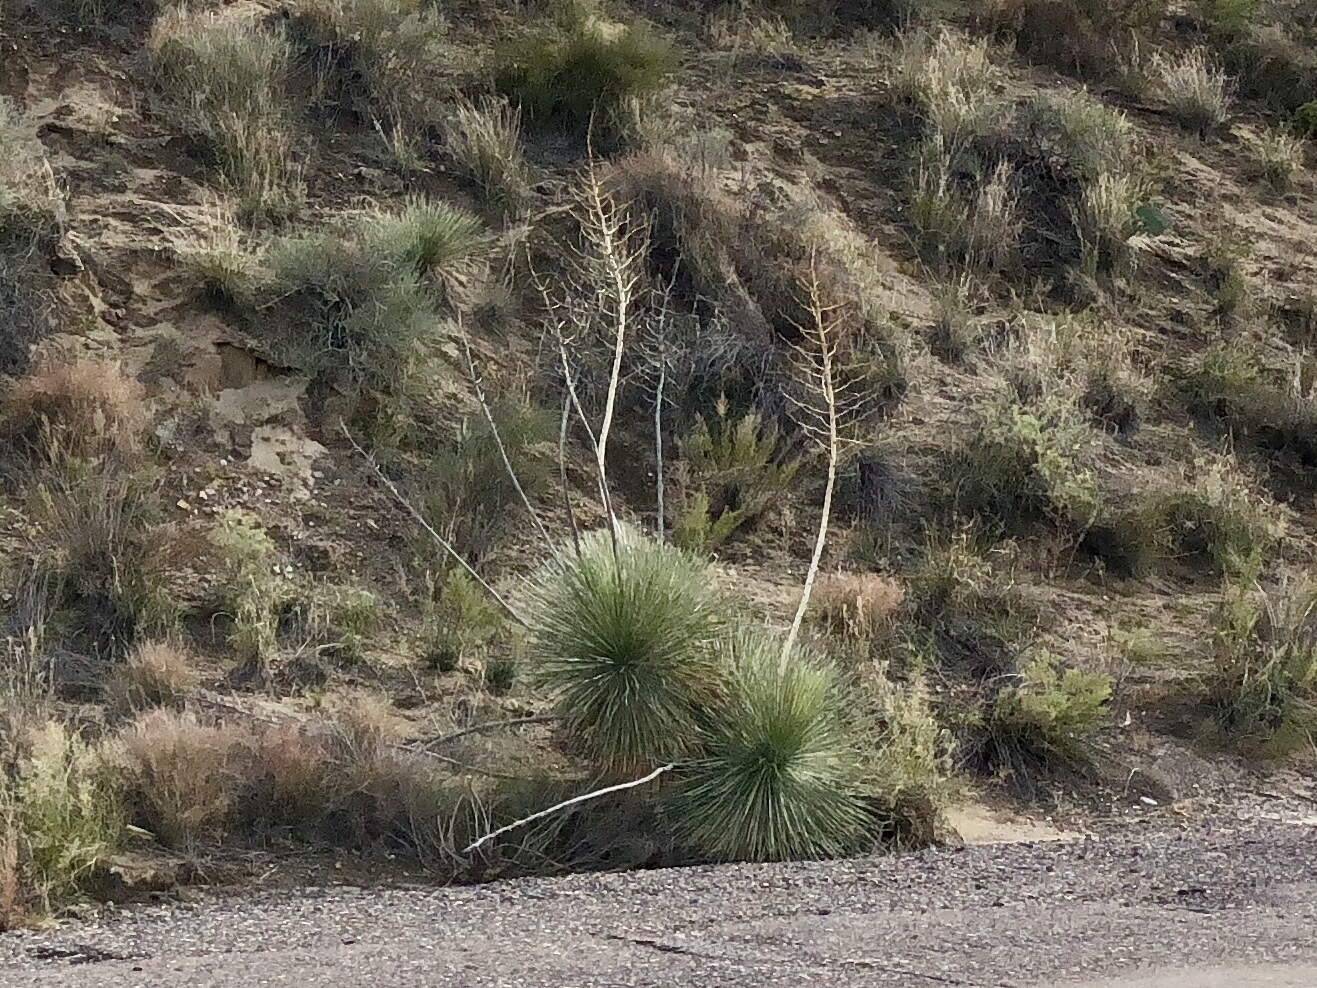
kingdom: Plantae
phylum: Tracheophyta
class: Liliopsida
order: Asparagales
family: Asparagaceae
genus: Yucca
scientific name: Yucca elata
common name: Palmella
